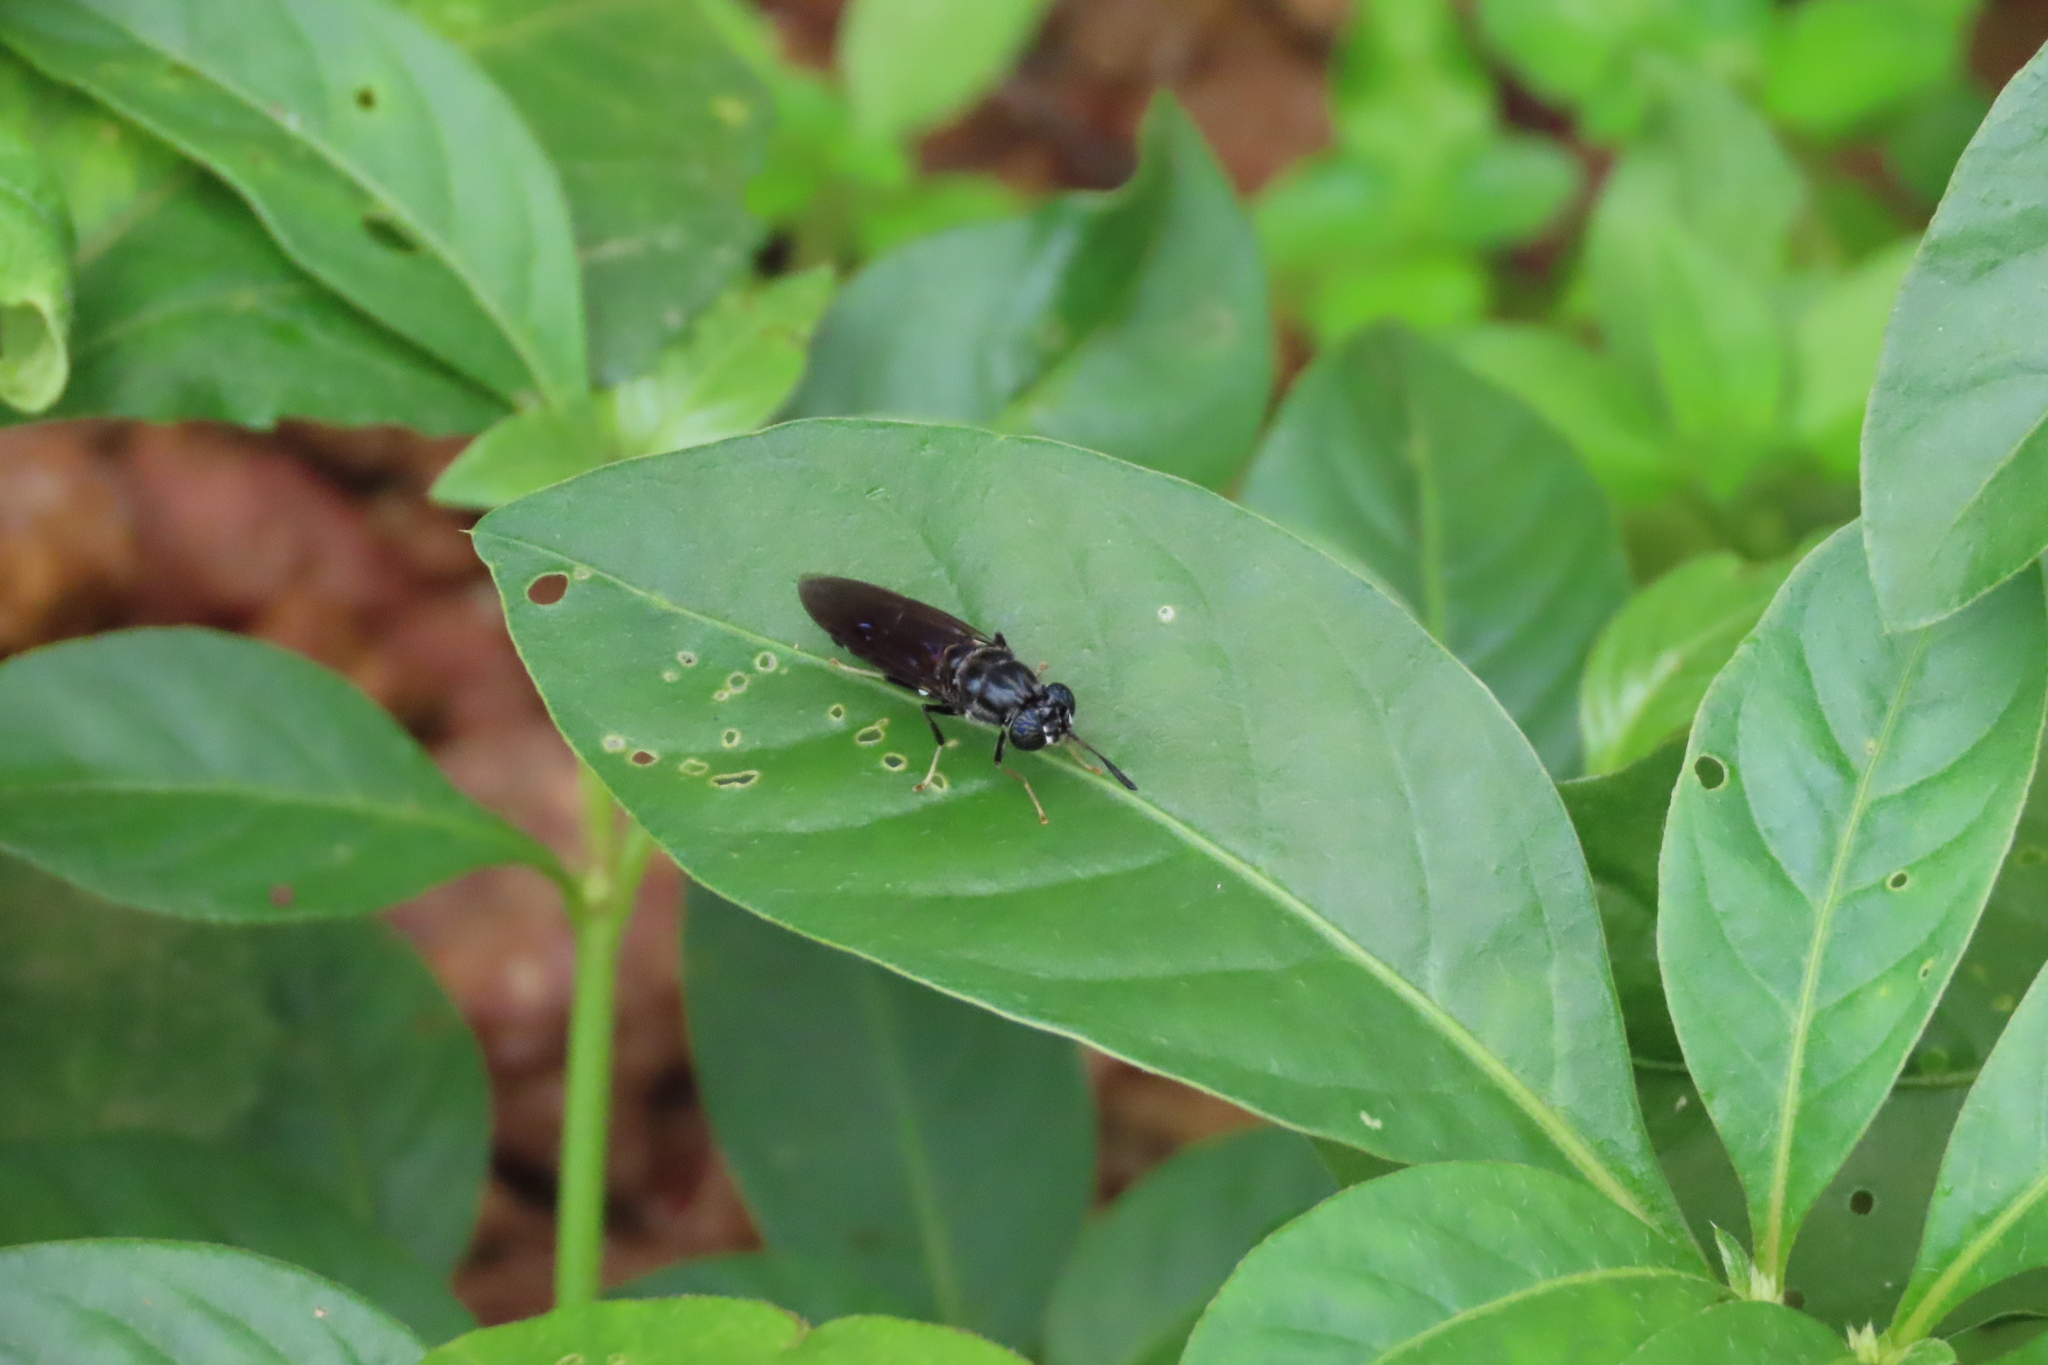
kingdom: Animalia
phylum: Arthropoda
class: Insecta
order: Diptera
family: Stratiomyidae
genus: Hermetia
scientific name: Hermetia illucens
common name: Black soldier fly
